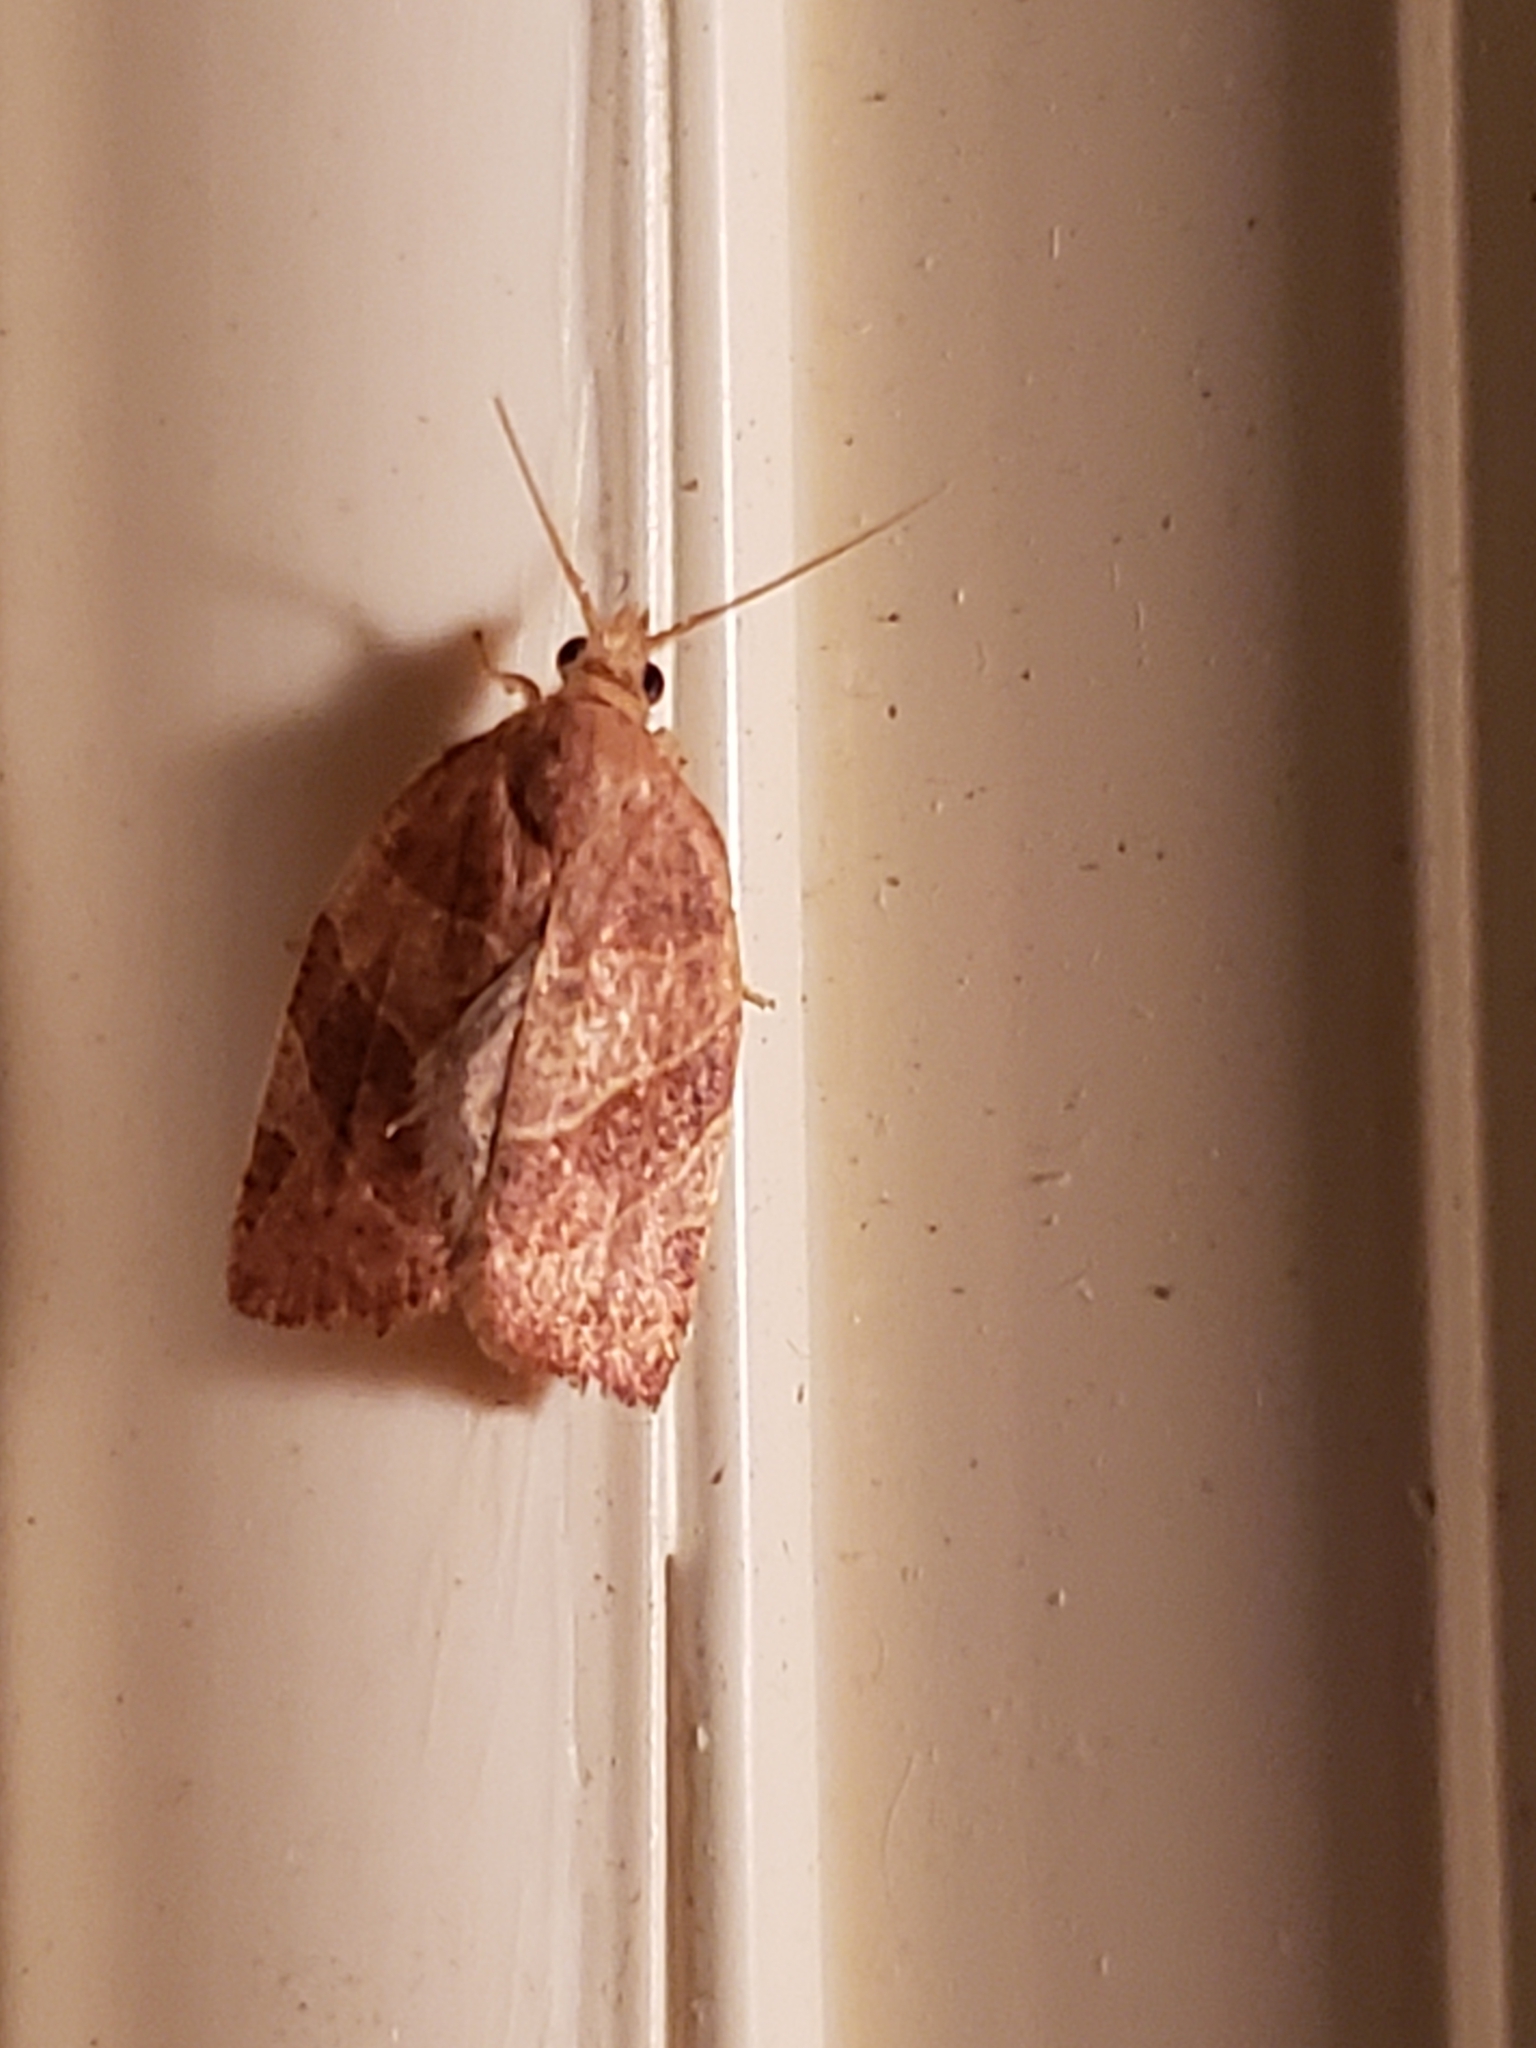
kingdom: Animalia
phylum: Arthropoda
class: Insecta
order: Lepidoptera
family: Tortricidae
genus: Pandemis
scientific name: Pandemis limitata
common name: Three-lined leafroller moth
